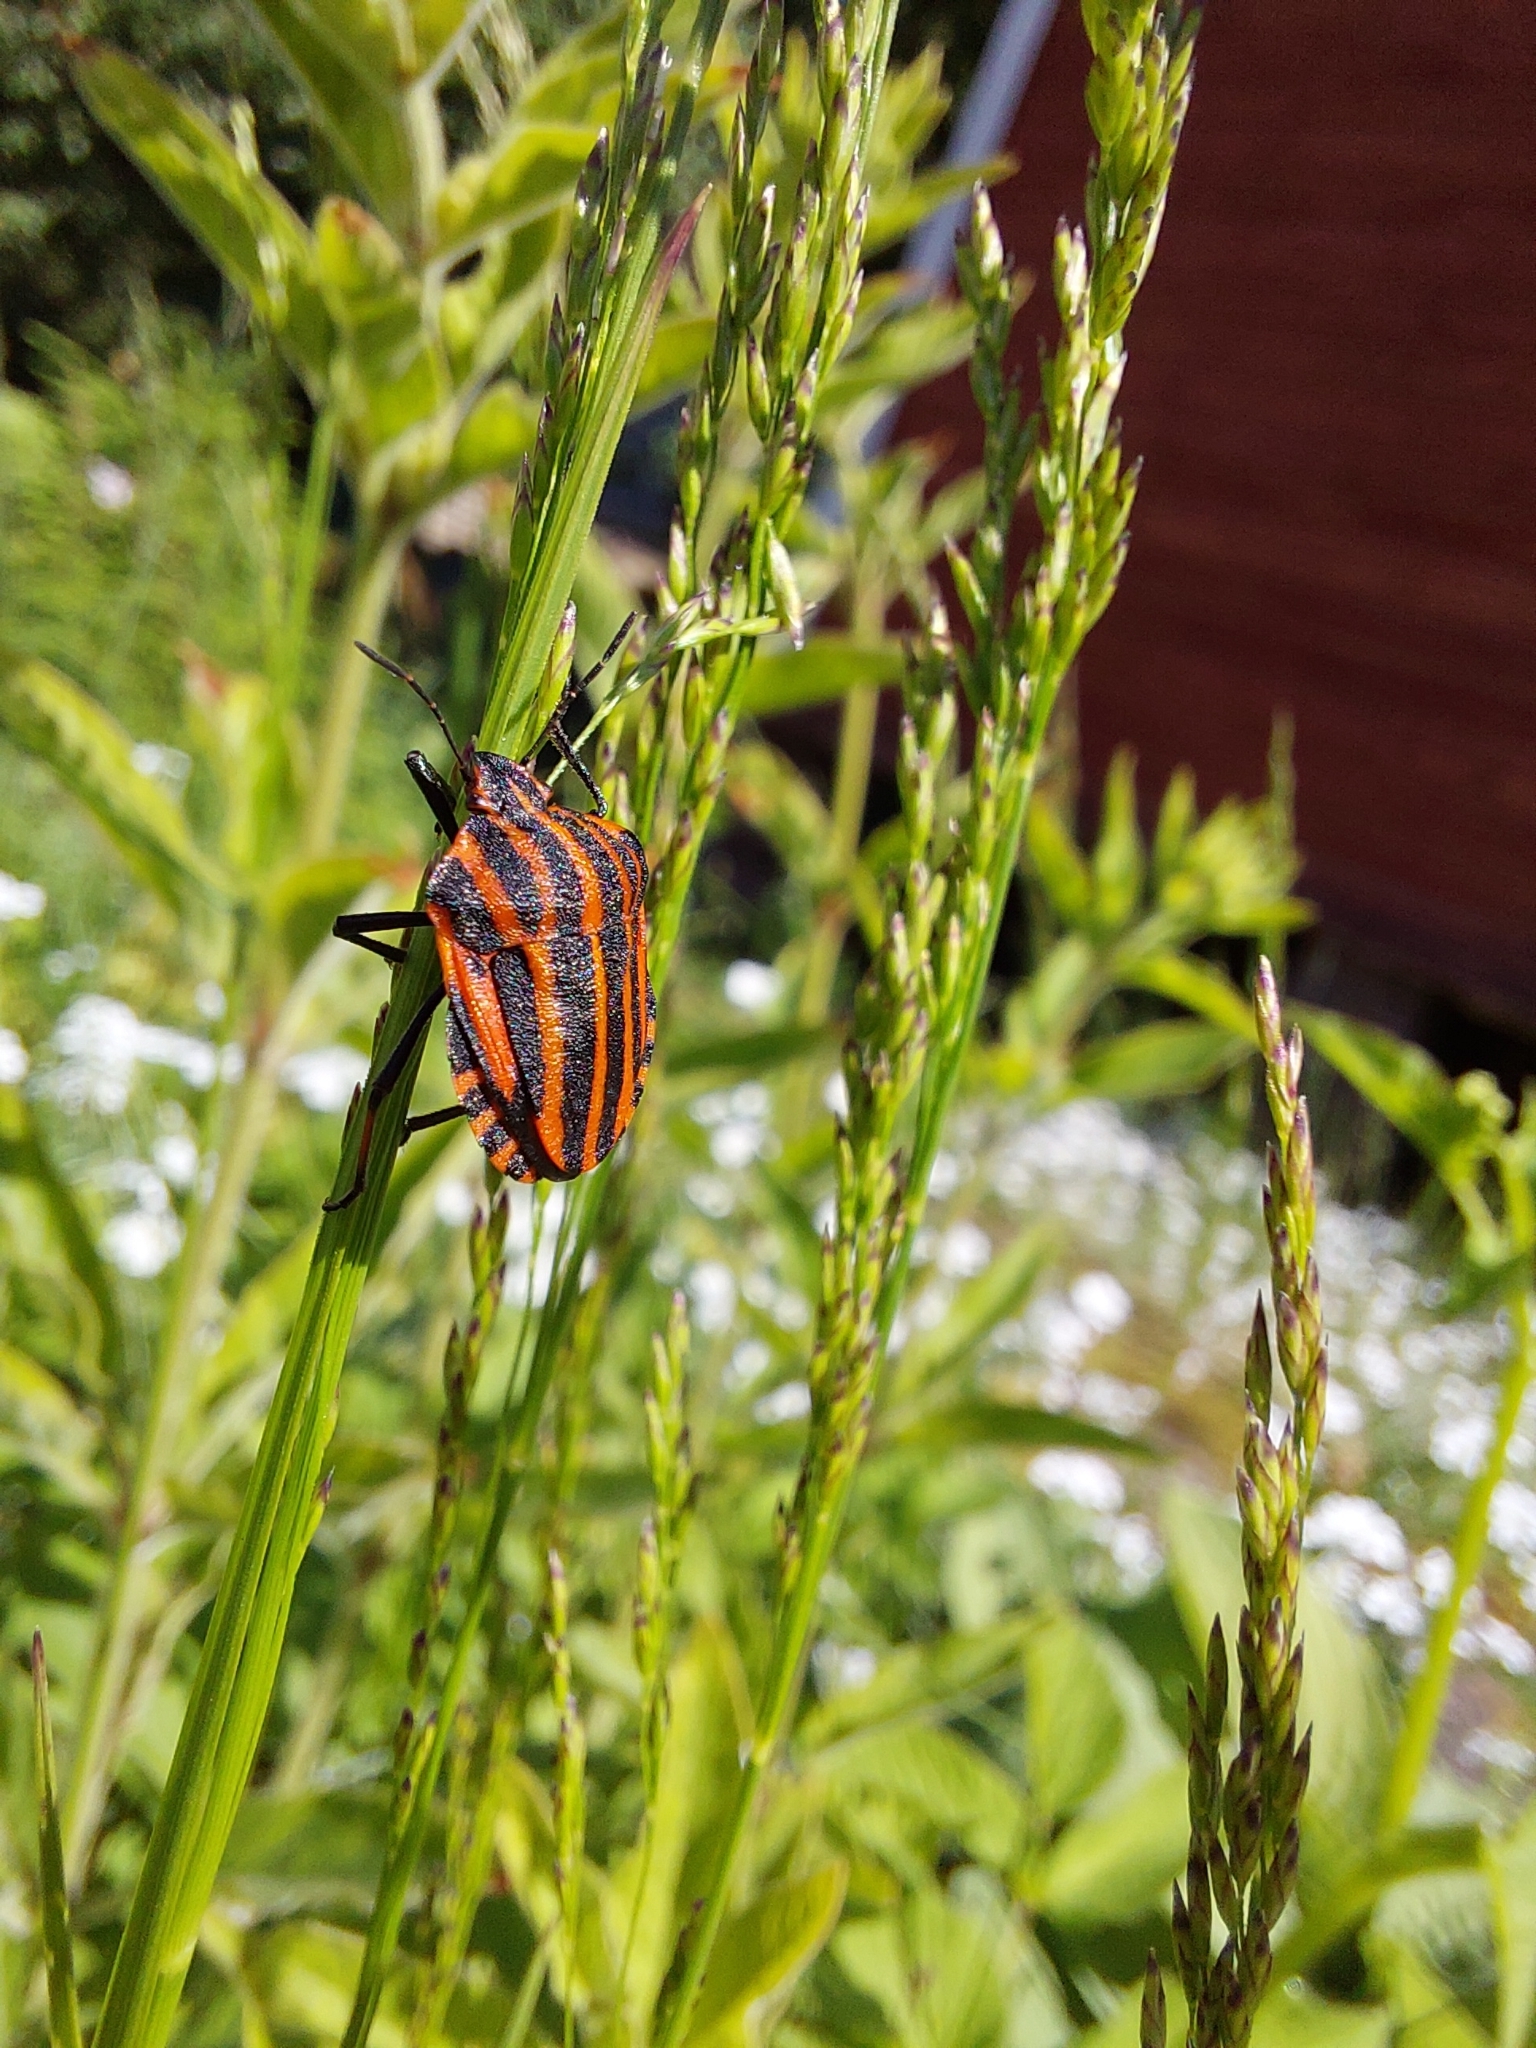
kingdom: Animalia
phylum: Arthropoda
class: Insecta
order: Hemiptera
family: Pentatomidae
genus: Graphosoma
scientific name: Graphosoma italicum
